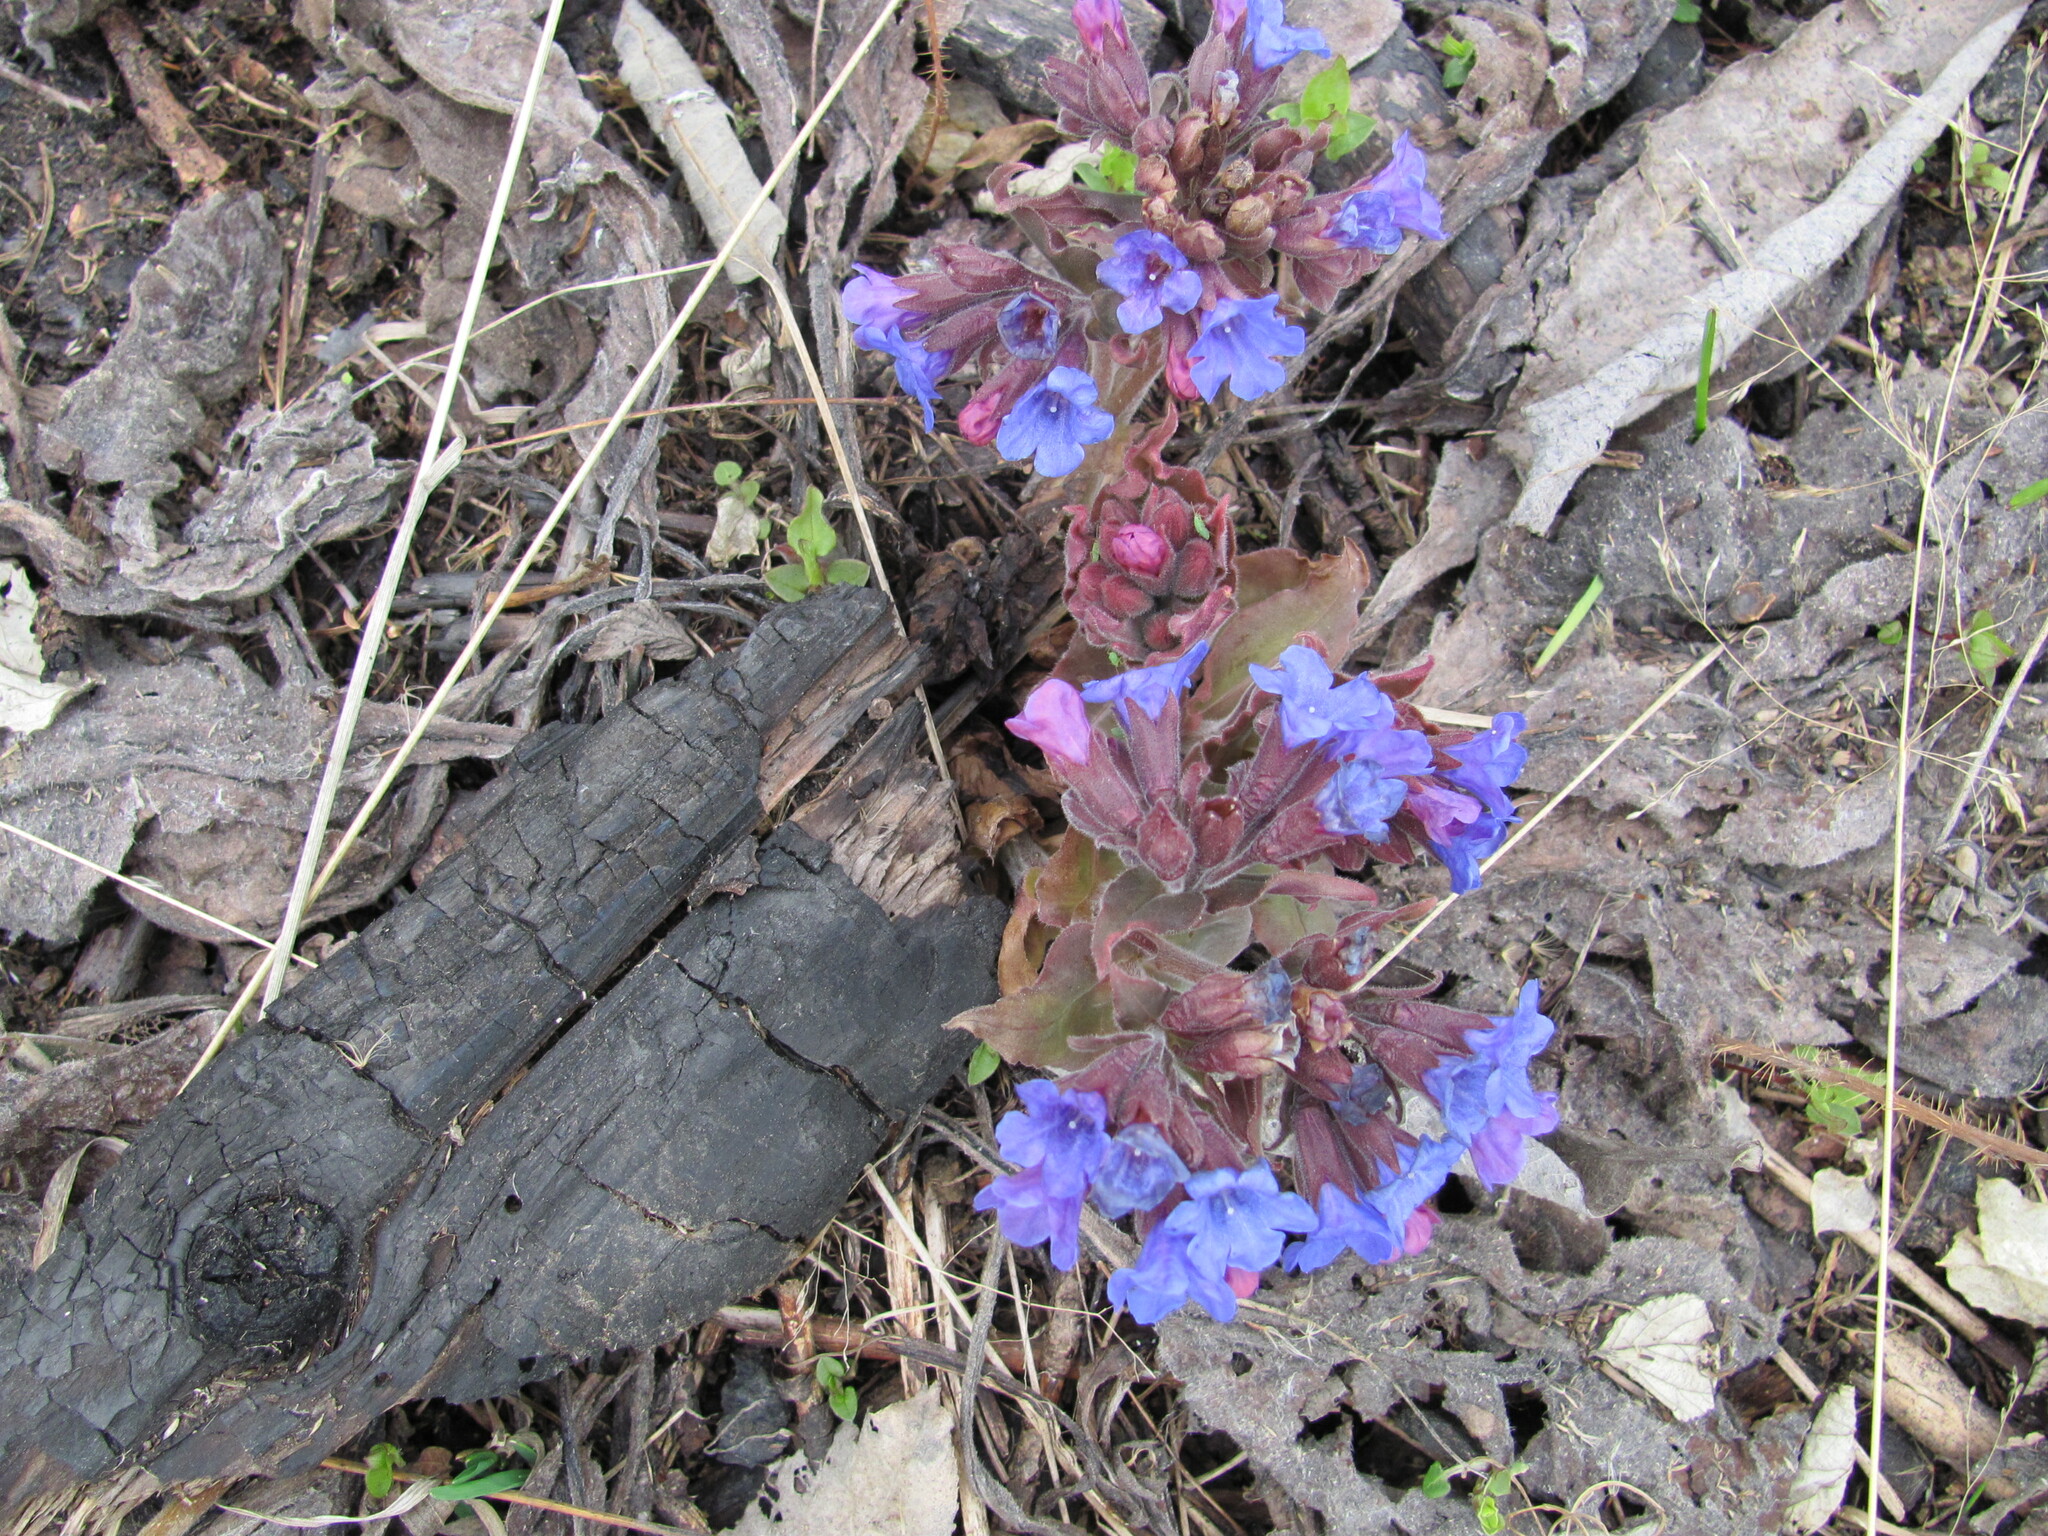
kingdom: Plantae
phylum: Tracheophyta
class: Magnoliopsida
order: Boraginales
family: Boraginaceae
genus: Pulmonaria
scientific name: Pulmonaria mollis
